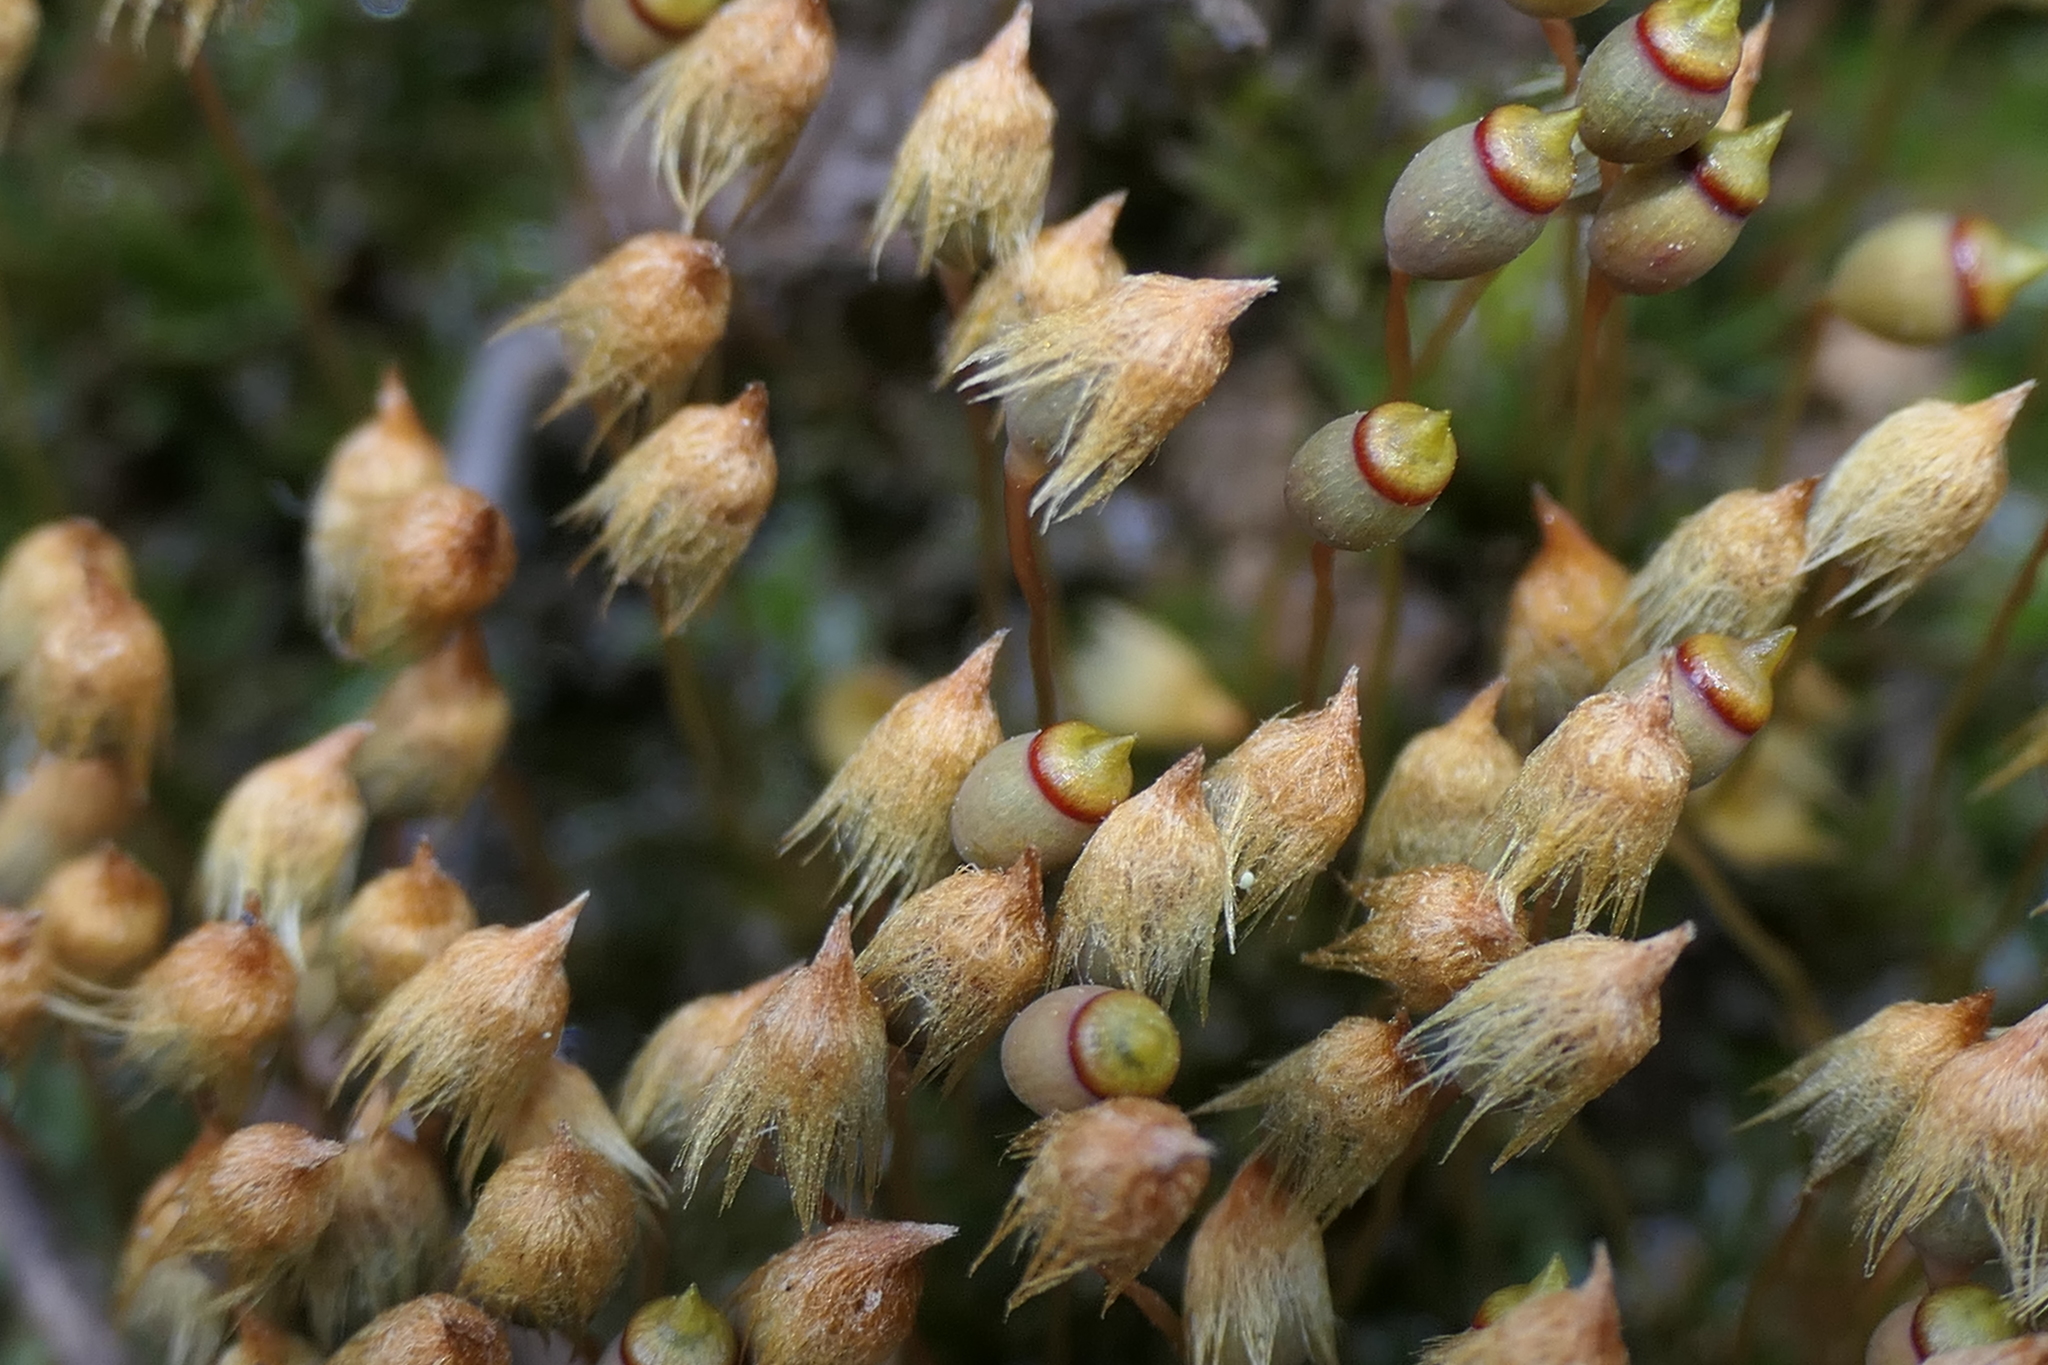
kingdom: Plantae
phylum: Bryophyta
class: Polytrichopsida
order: Polytrichales
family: Polytrichaceae
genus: Pogonatum
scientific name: Pogonatum nanum
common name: Dwarf haircap
